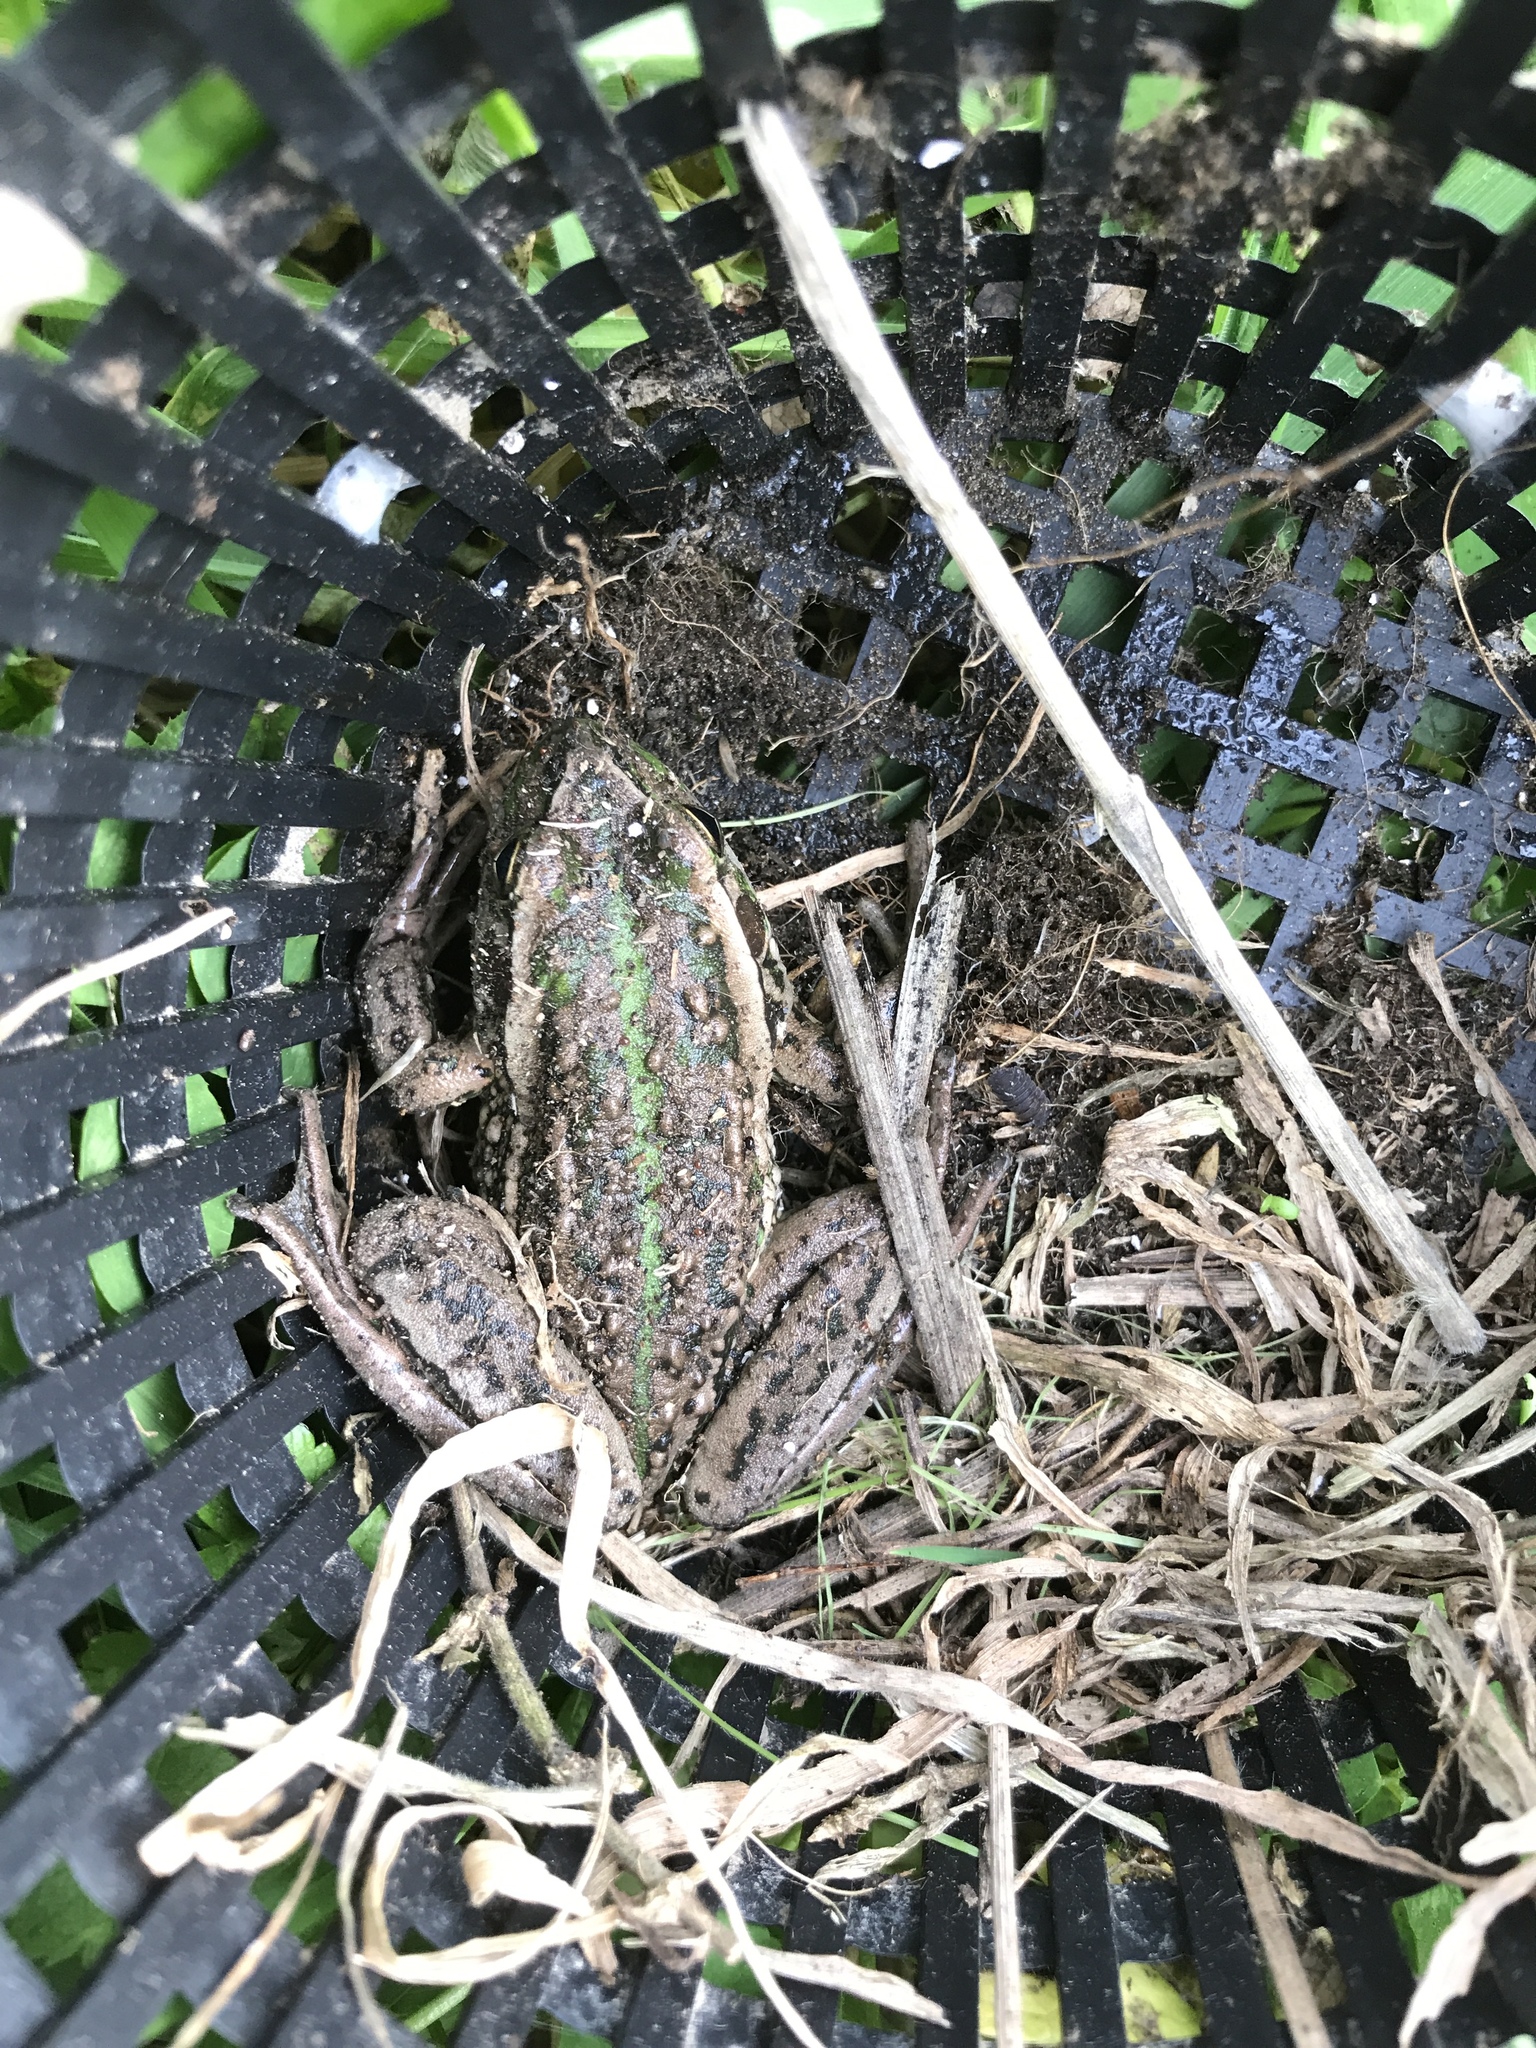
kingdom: Animalia
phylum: Chordata
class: Amphibia
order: Anura
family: Pelodryadidae
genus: Ranoidea
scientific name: Ranoidea raniformis
